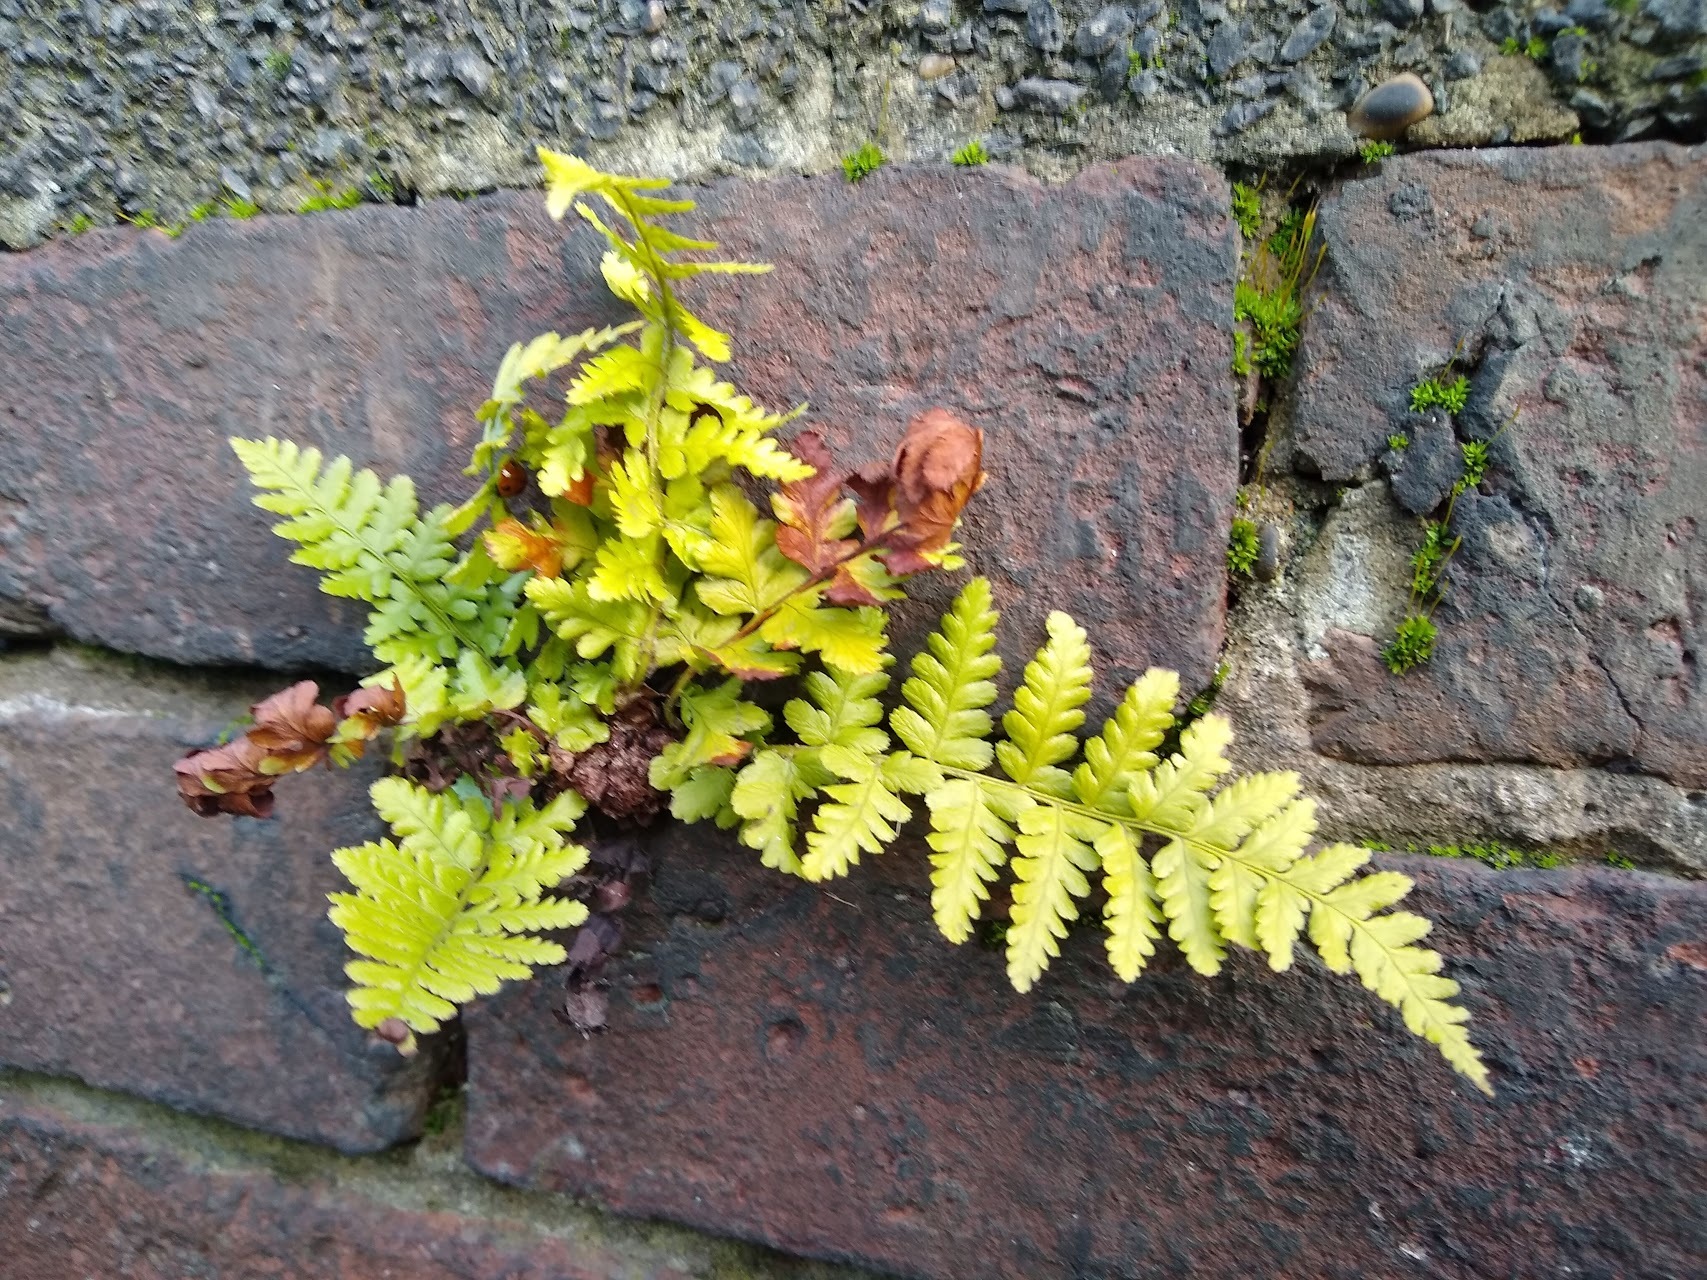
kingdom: Plantae
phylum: Tracheophyta
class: Polypodiopsida
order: Polypodiales
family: Dryopteridaceae
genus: Dryopteris
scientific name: Dryopteris filix-mas
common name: Male fern
